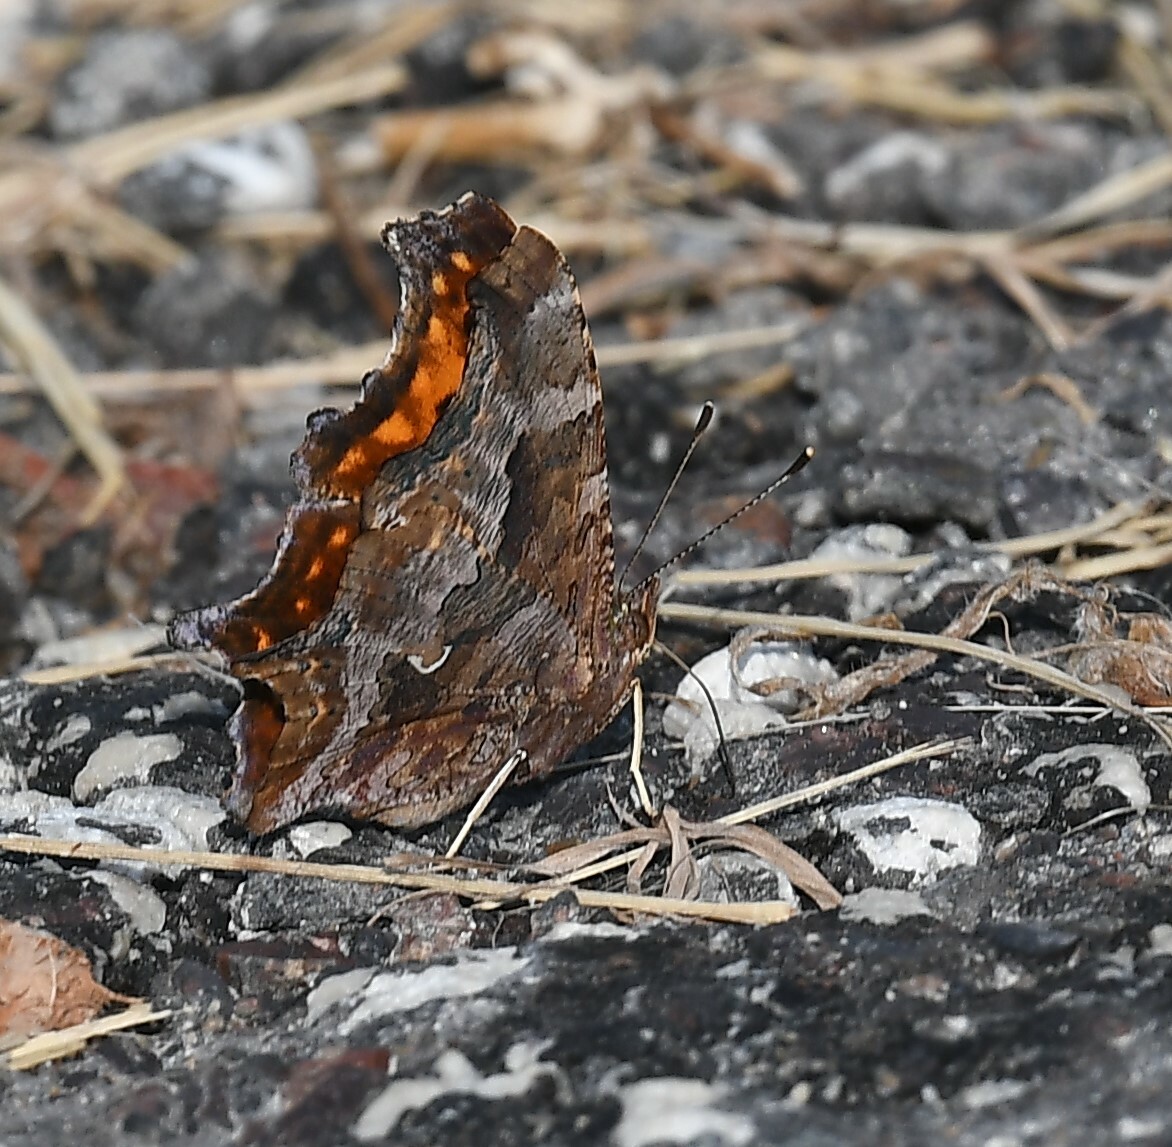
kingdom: Animalia
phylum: Arthropoda
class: Insecta
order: Lepidoptera
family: Nymphalidae
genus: Polygonia
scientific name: Polygonia comma
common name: Eastern comma
